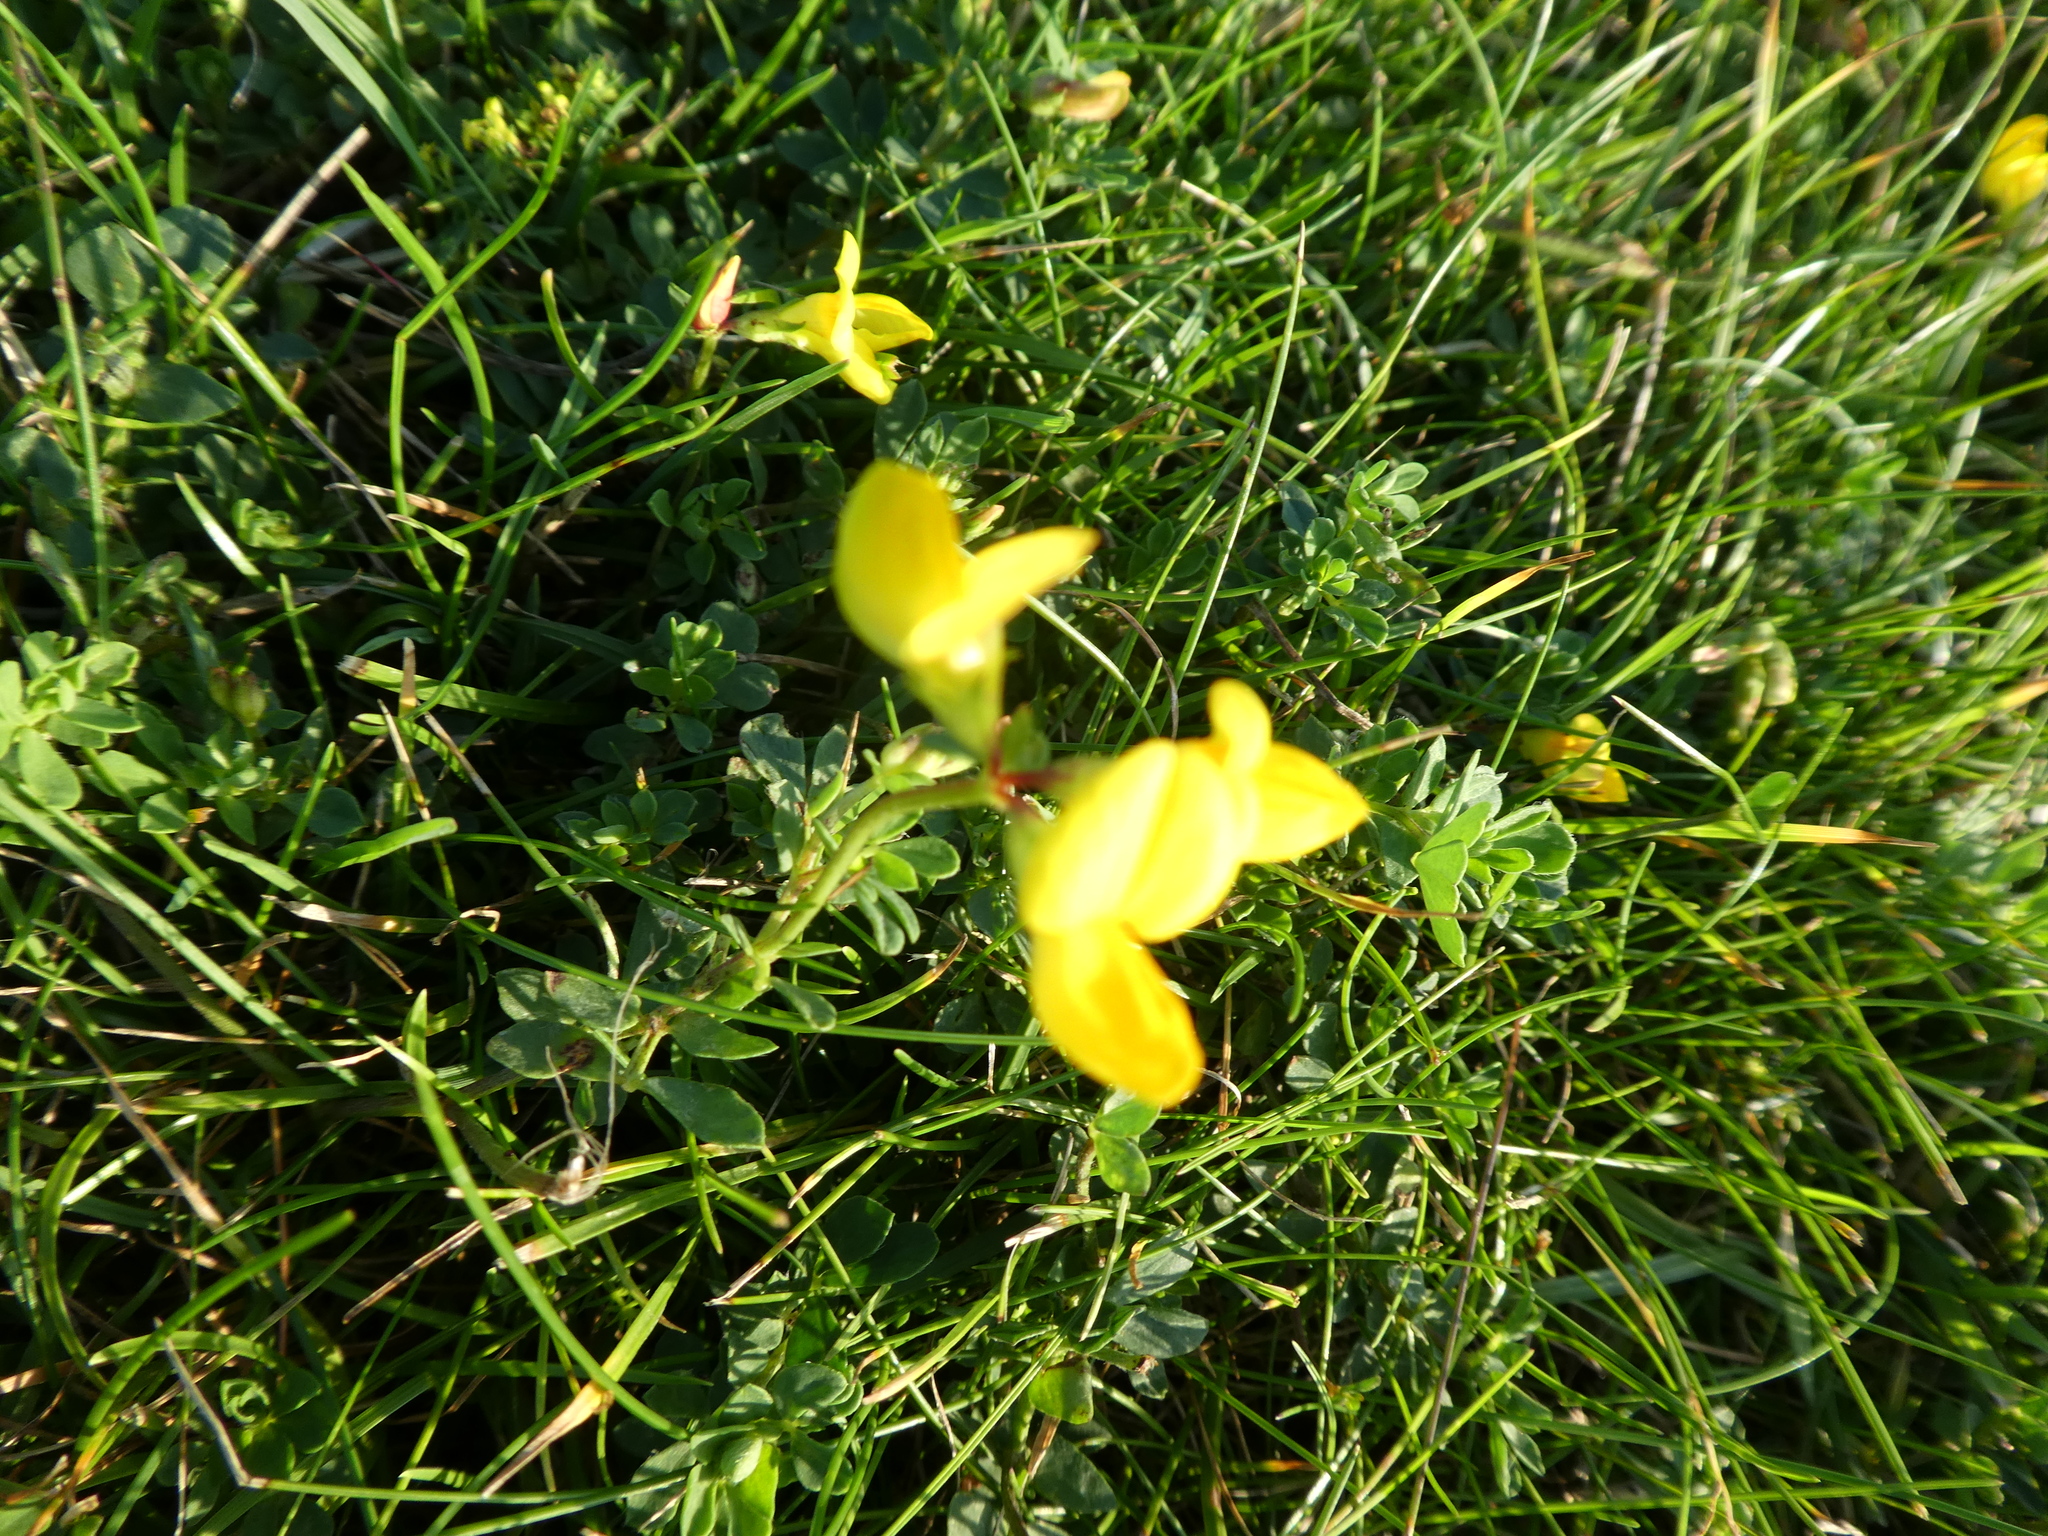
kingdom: Plantae
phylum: Tracheophyta
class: Magnoliopsida
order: Fabales
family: Fabaceae
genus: Lotus
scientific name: Lotus corniculatus
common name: Common bird's-foot-trefoil
